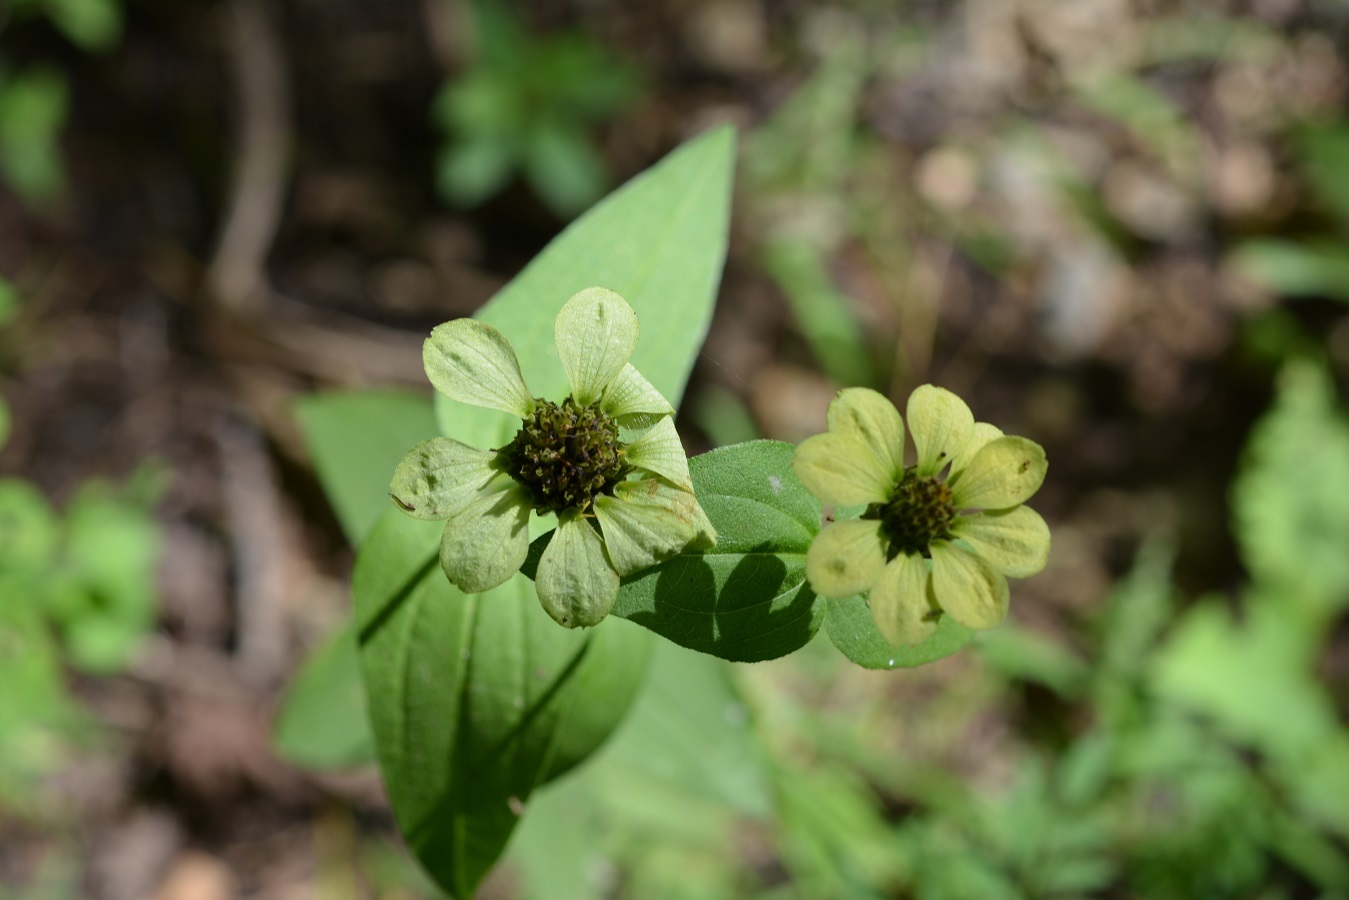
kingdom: Plantae
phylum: Tracheophyta
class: Magnoliopsida
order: Asterales
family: Asteraceae
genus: Zinnia
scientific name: Zinnia peruviana
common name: Peruvian zinnia
